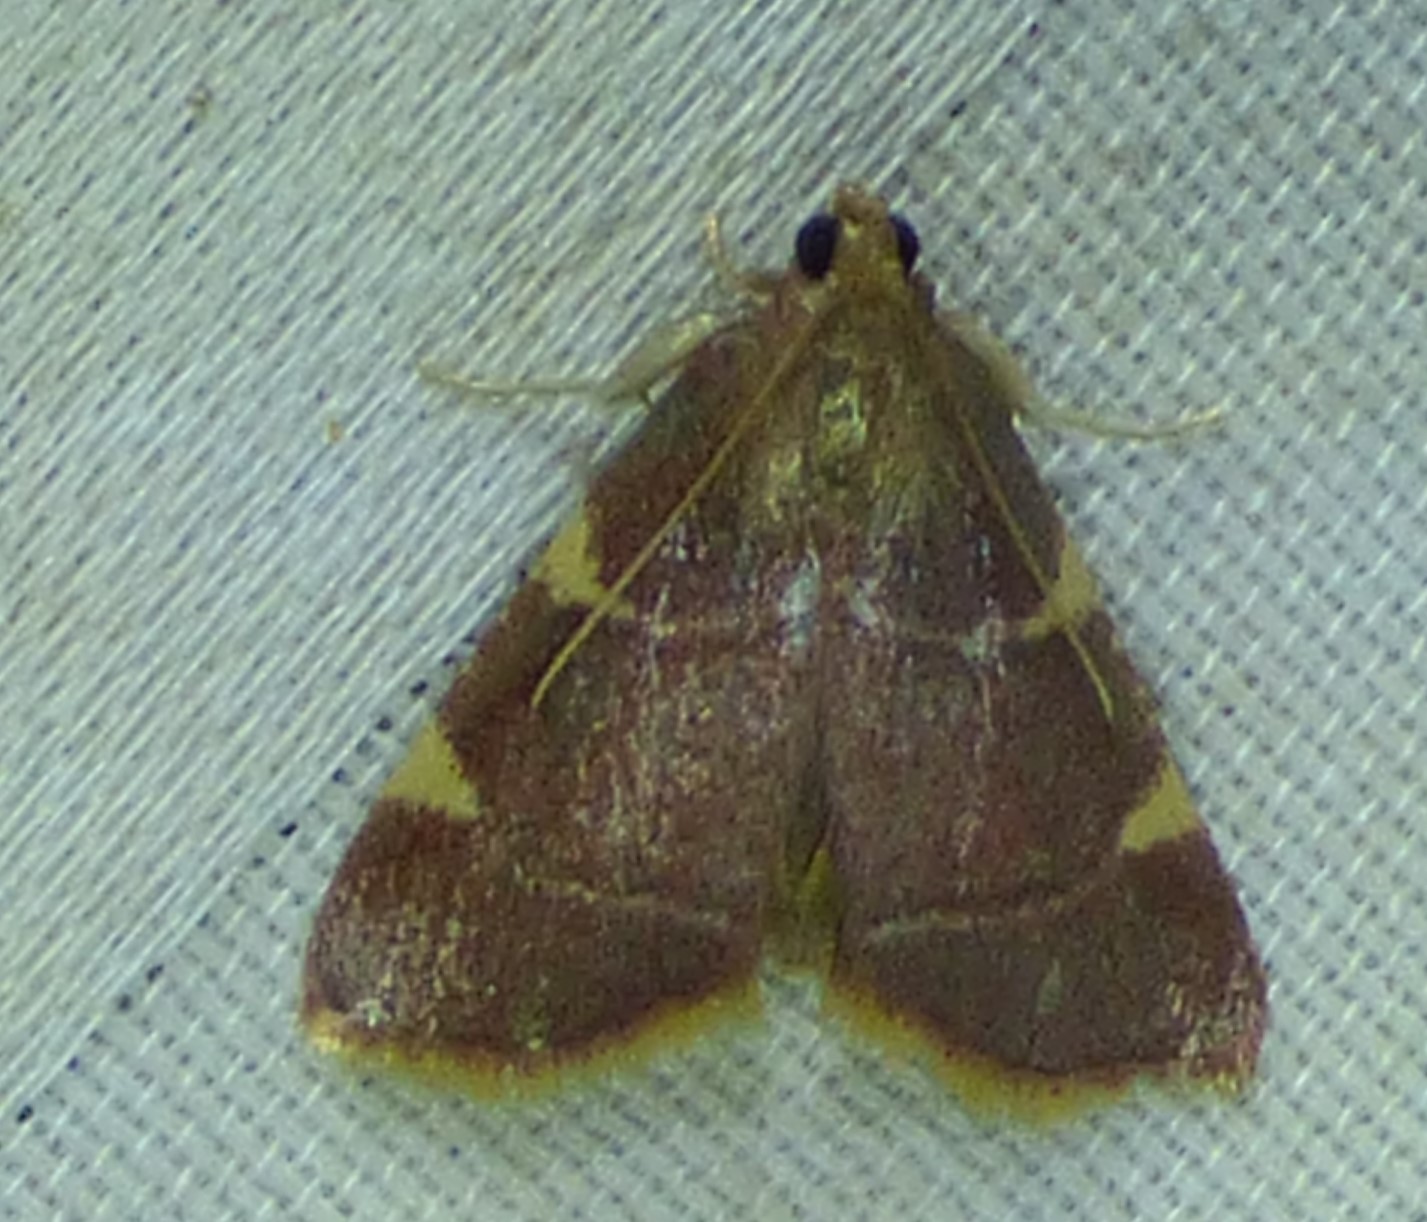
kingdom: Animalia
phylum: Arthropoda
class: Insecta
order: Lepidoptera
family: Pyralidae
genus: Hypsopygia
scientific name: Hypsopygia olinalis
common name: Yellow-fringed dolichomia moth
